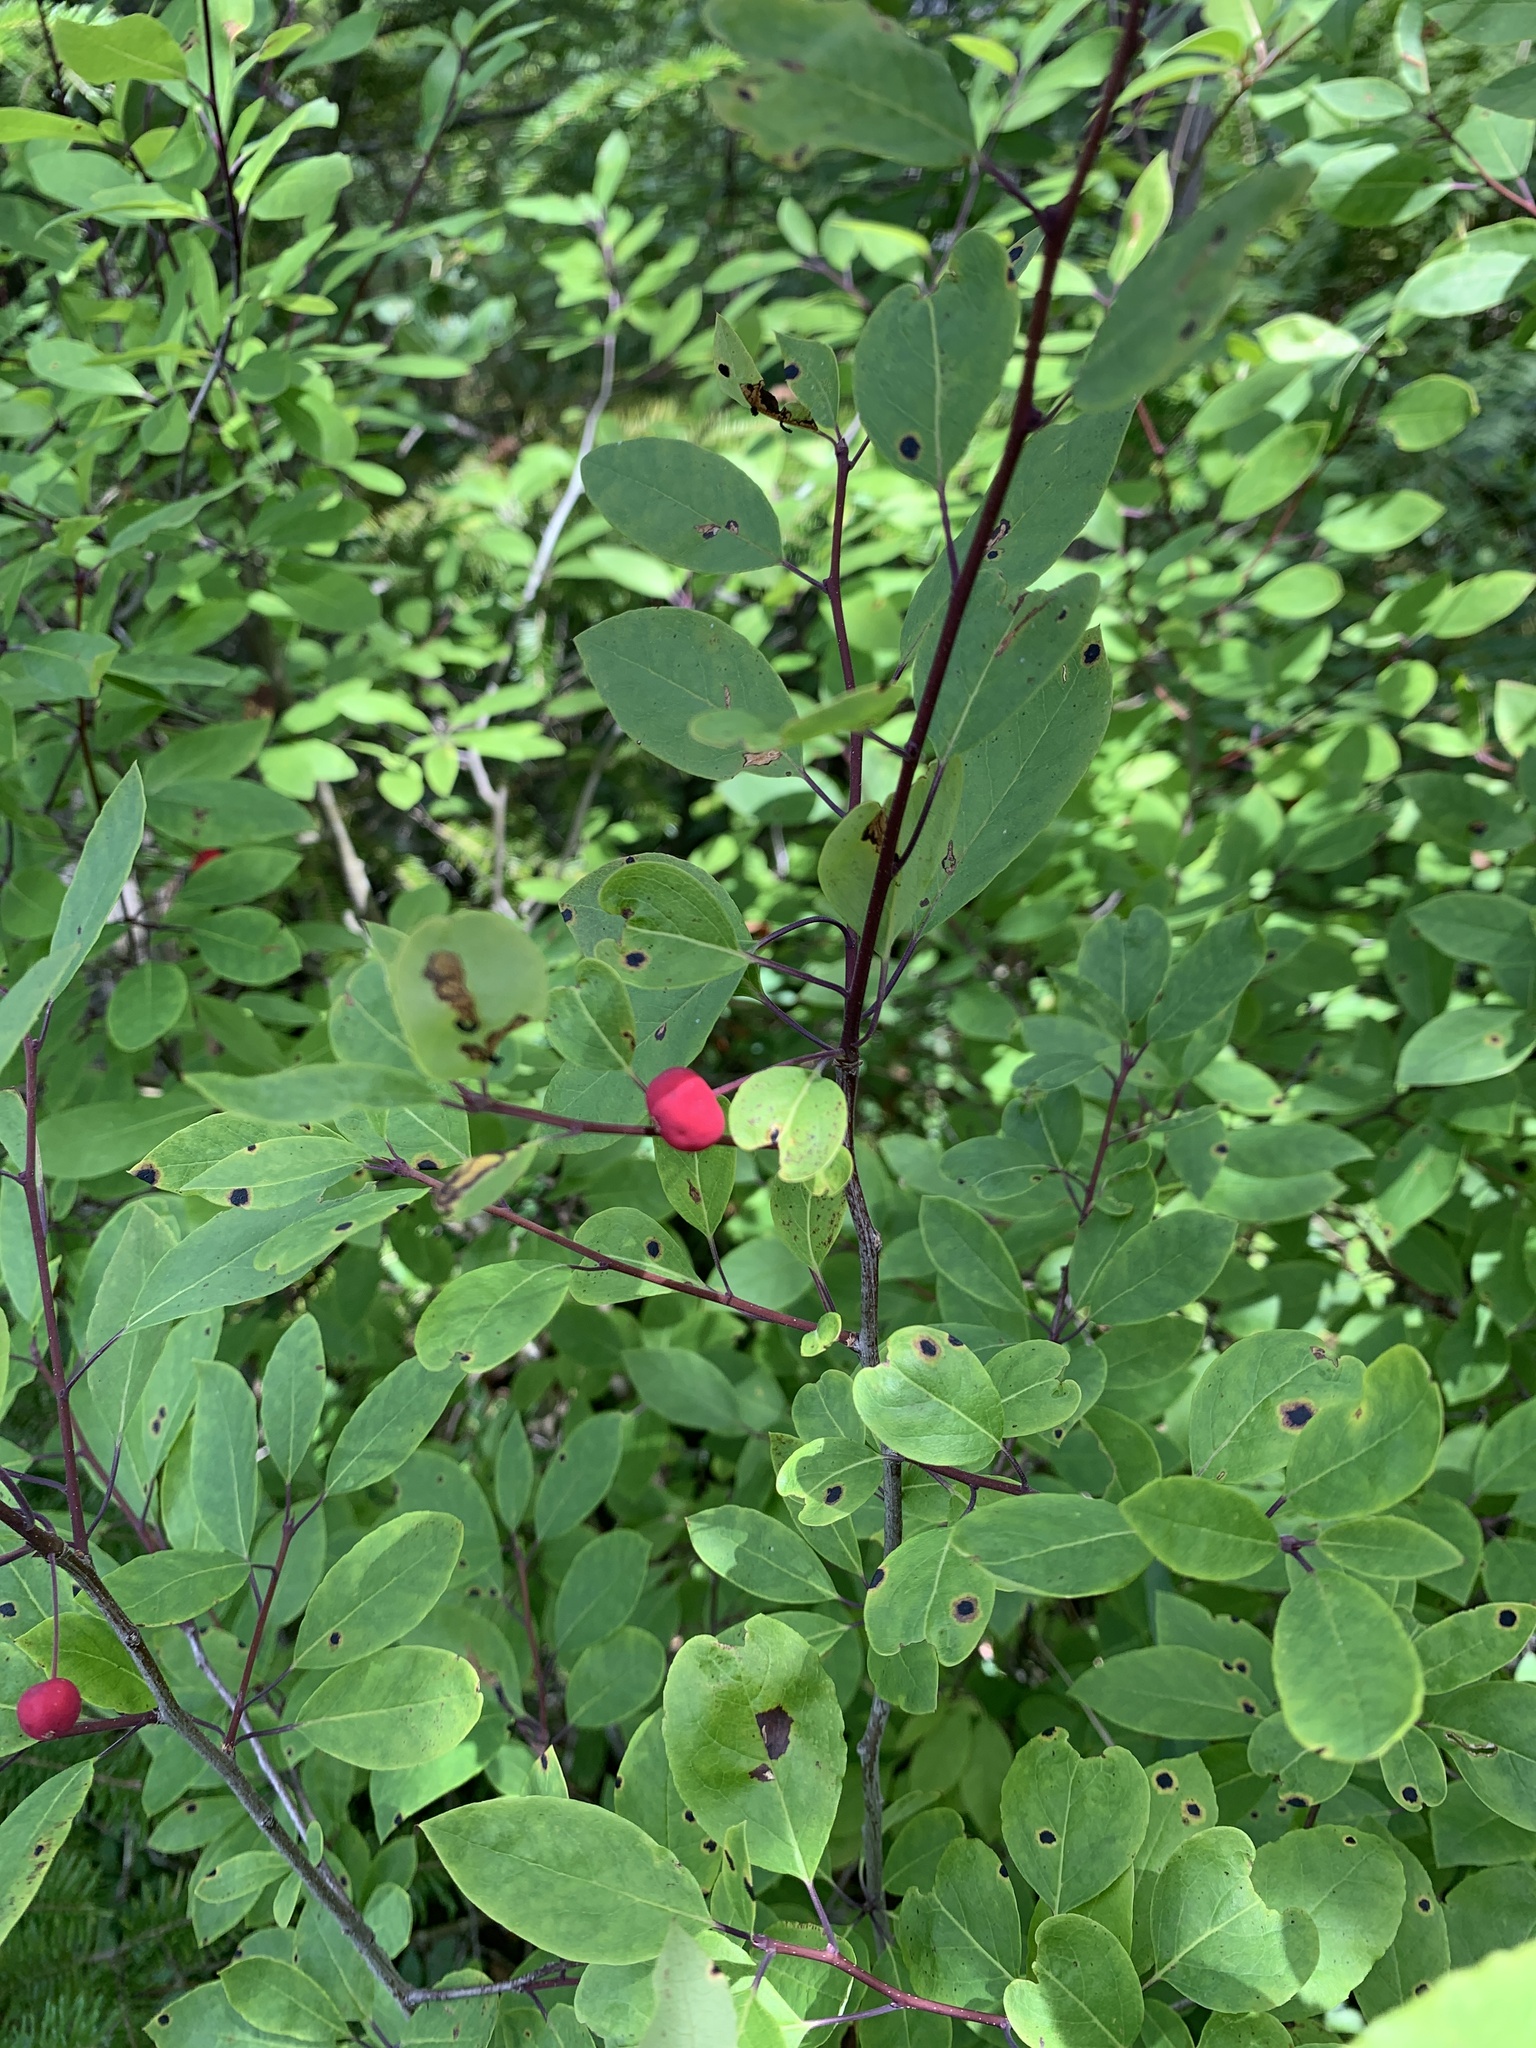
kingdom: Plantae
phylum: Tracheophyta
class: Magnoliopsida
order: Aquifoliales
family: Aquifoliaceae
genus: Ilex
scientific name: Ilex mucronata
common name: Catberry
